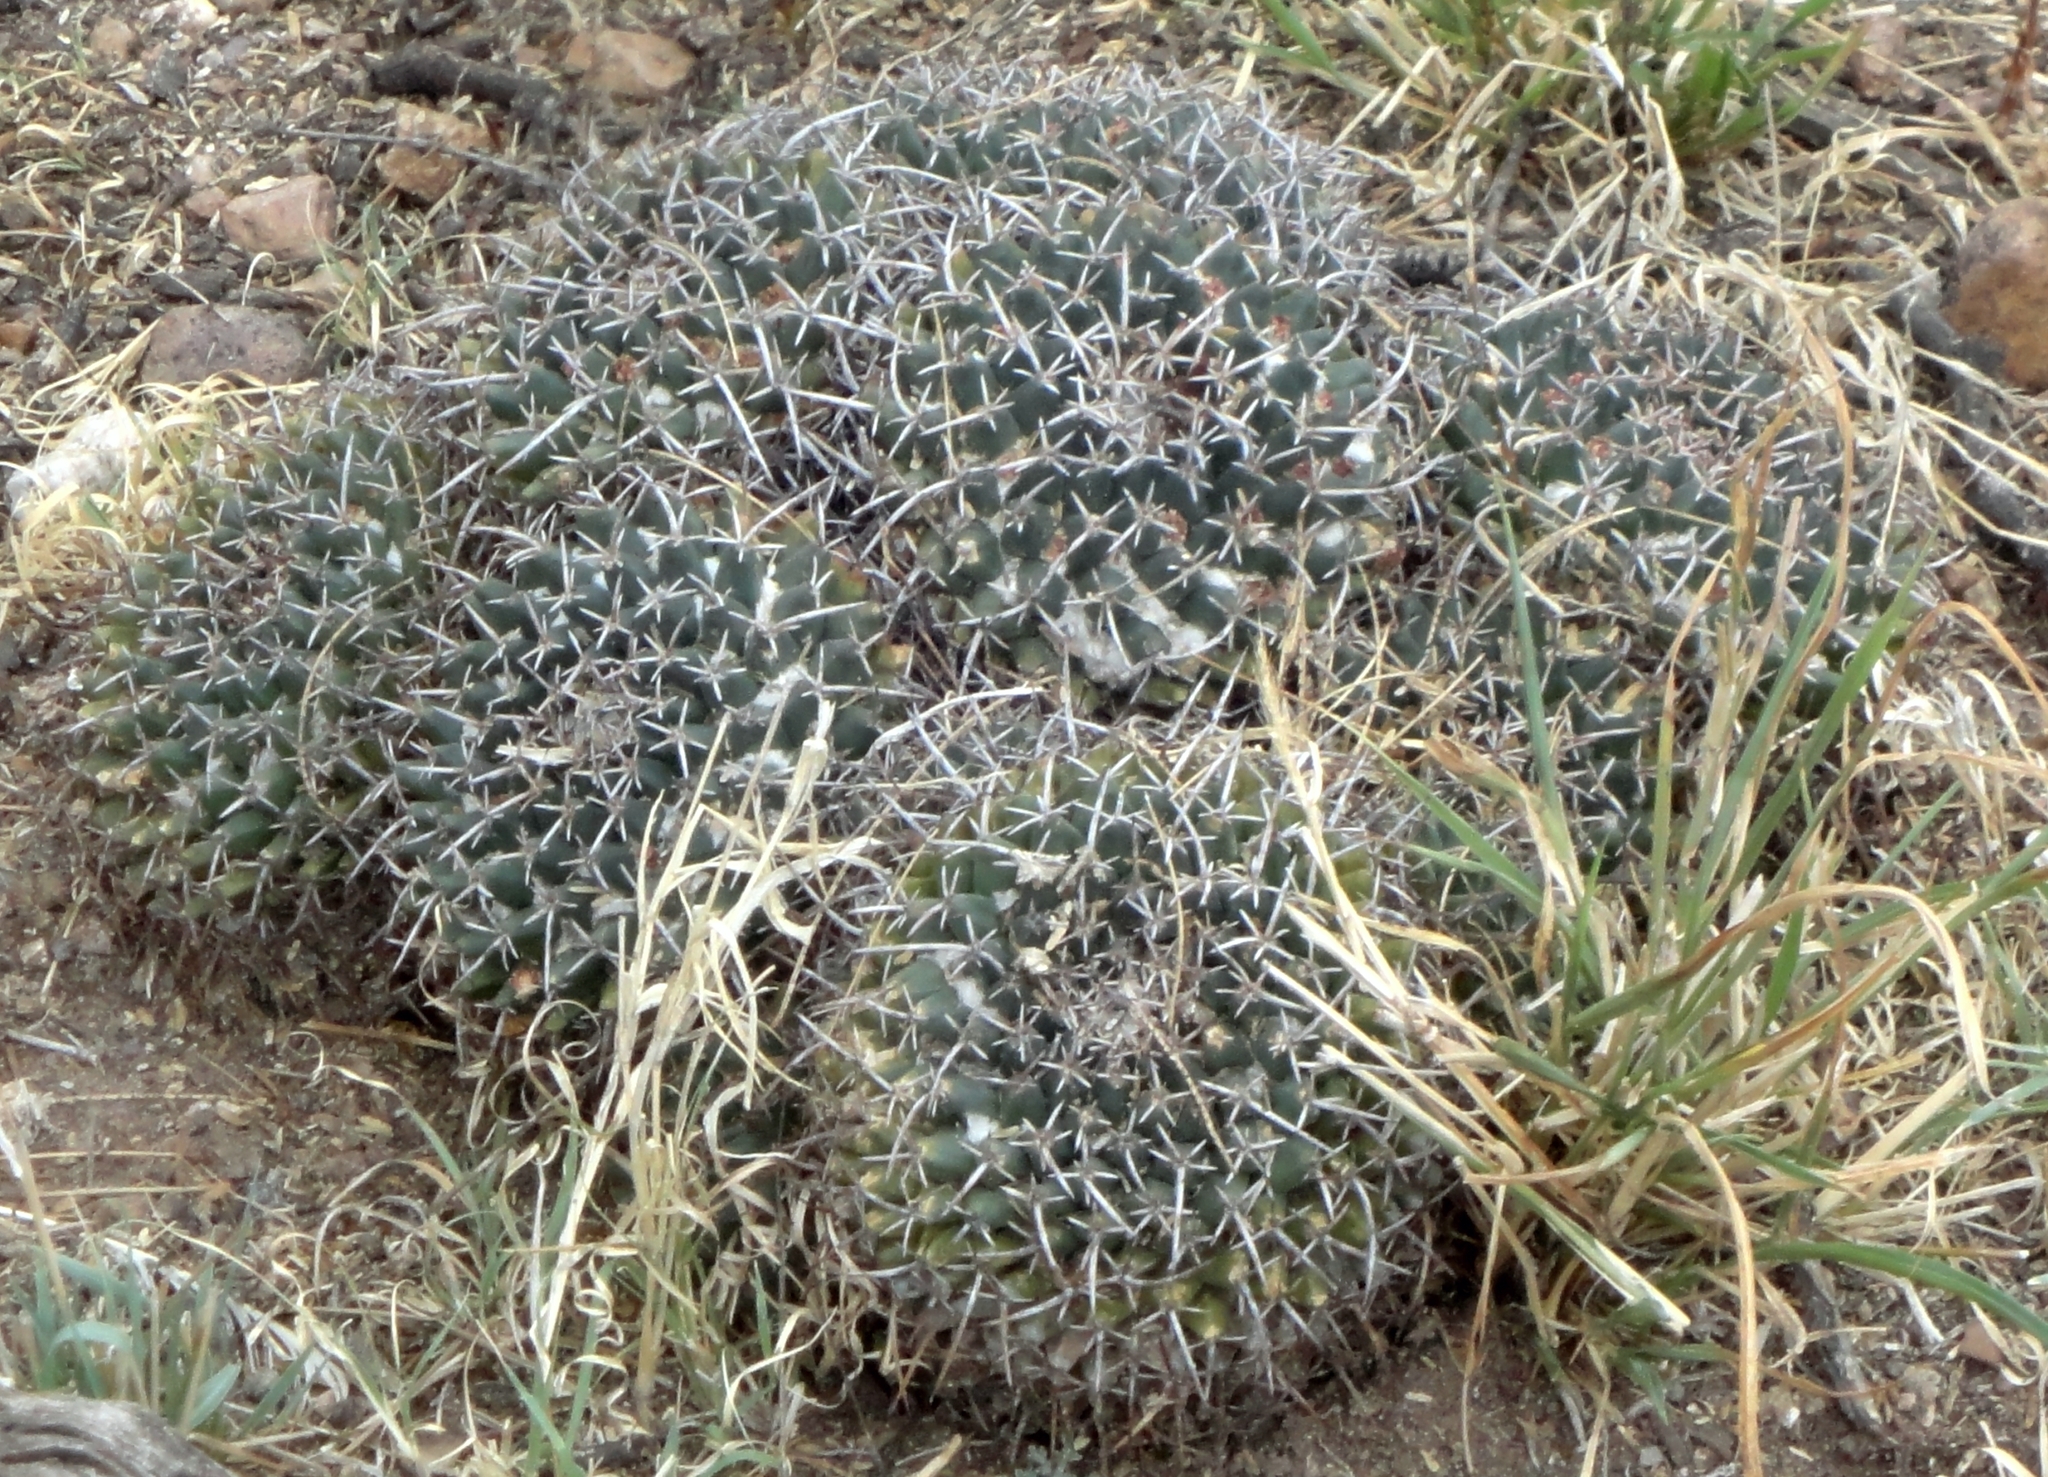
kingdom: Plantae
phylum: Tracheophyta
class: Magnoliopsida
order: Caryophyllales
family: Cactaceae
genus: Mammillaria
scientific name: Mammillaria magnimamma
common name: Mexican pincushion
